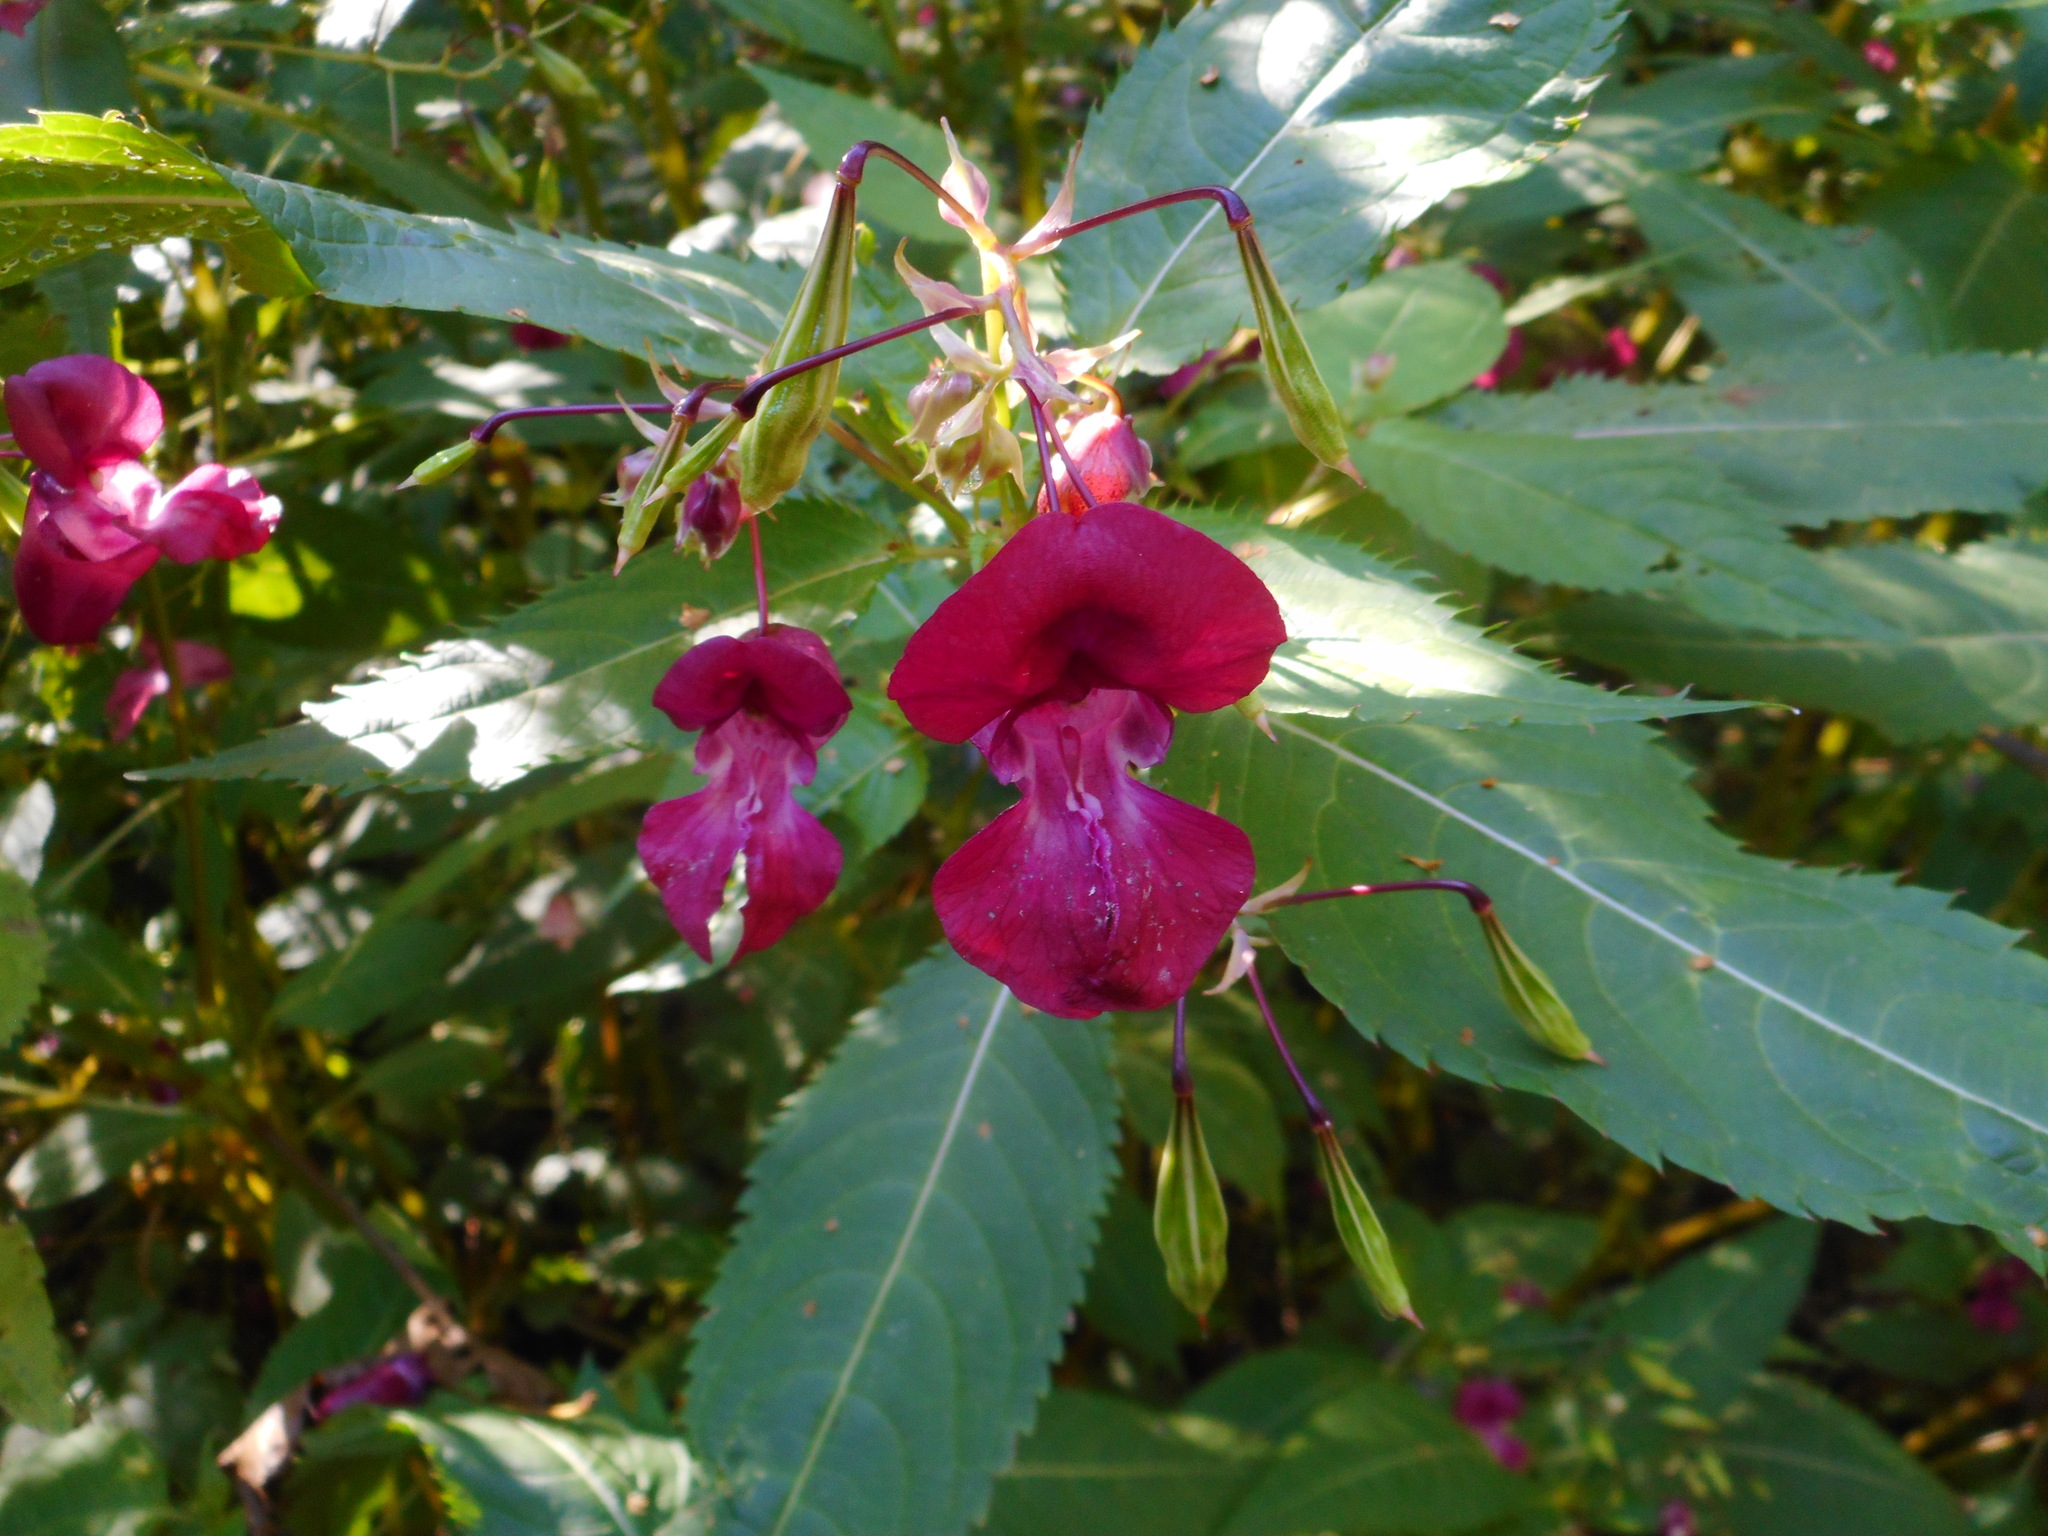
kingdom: Plantae
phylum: Tracheophyta
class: Magnoliopsida
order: Ericales
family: Balsaminaceae
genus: Impatiens
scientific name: Impatiens glandulifera
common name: Himalayan balsam
